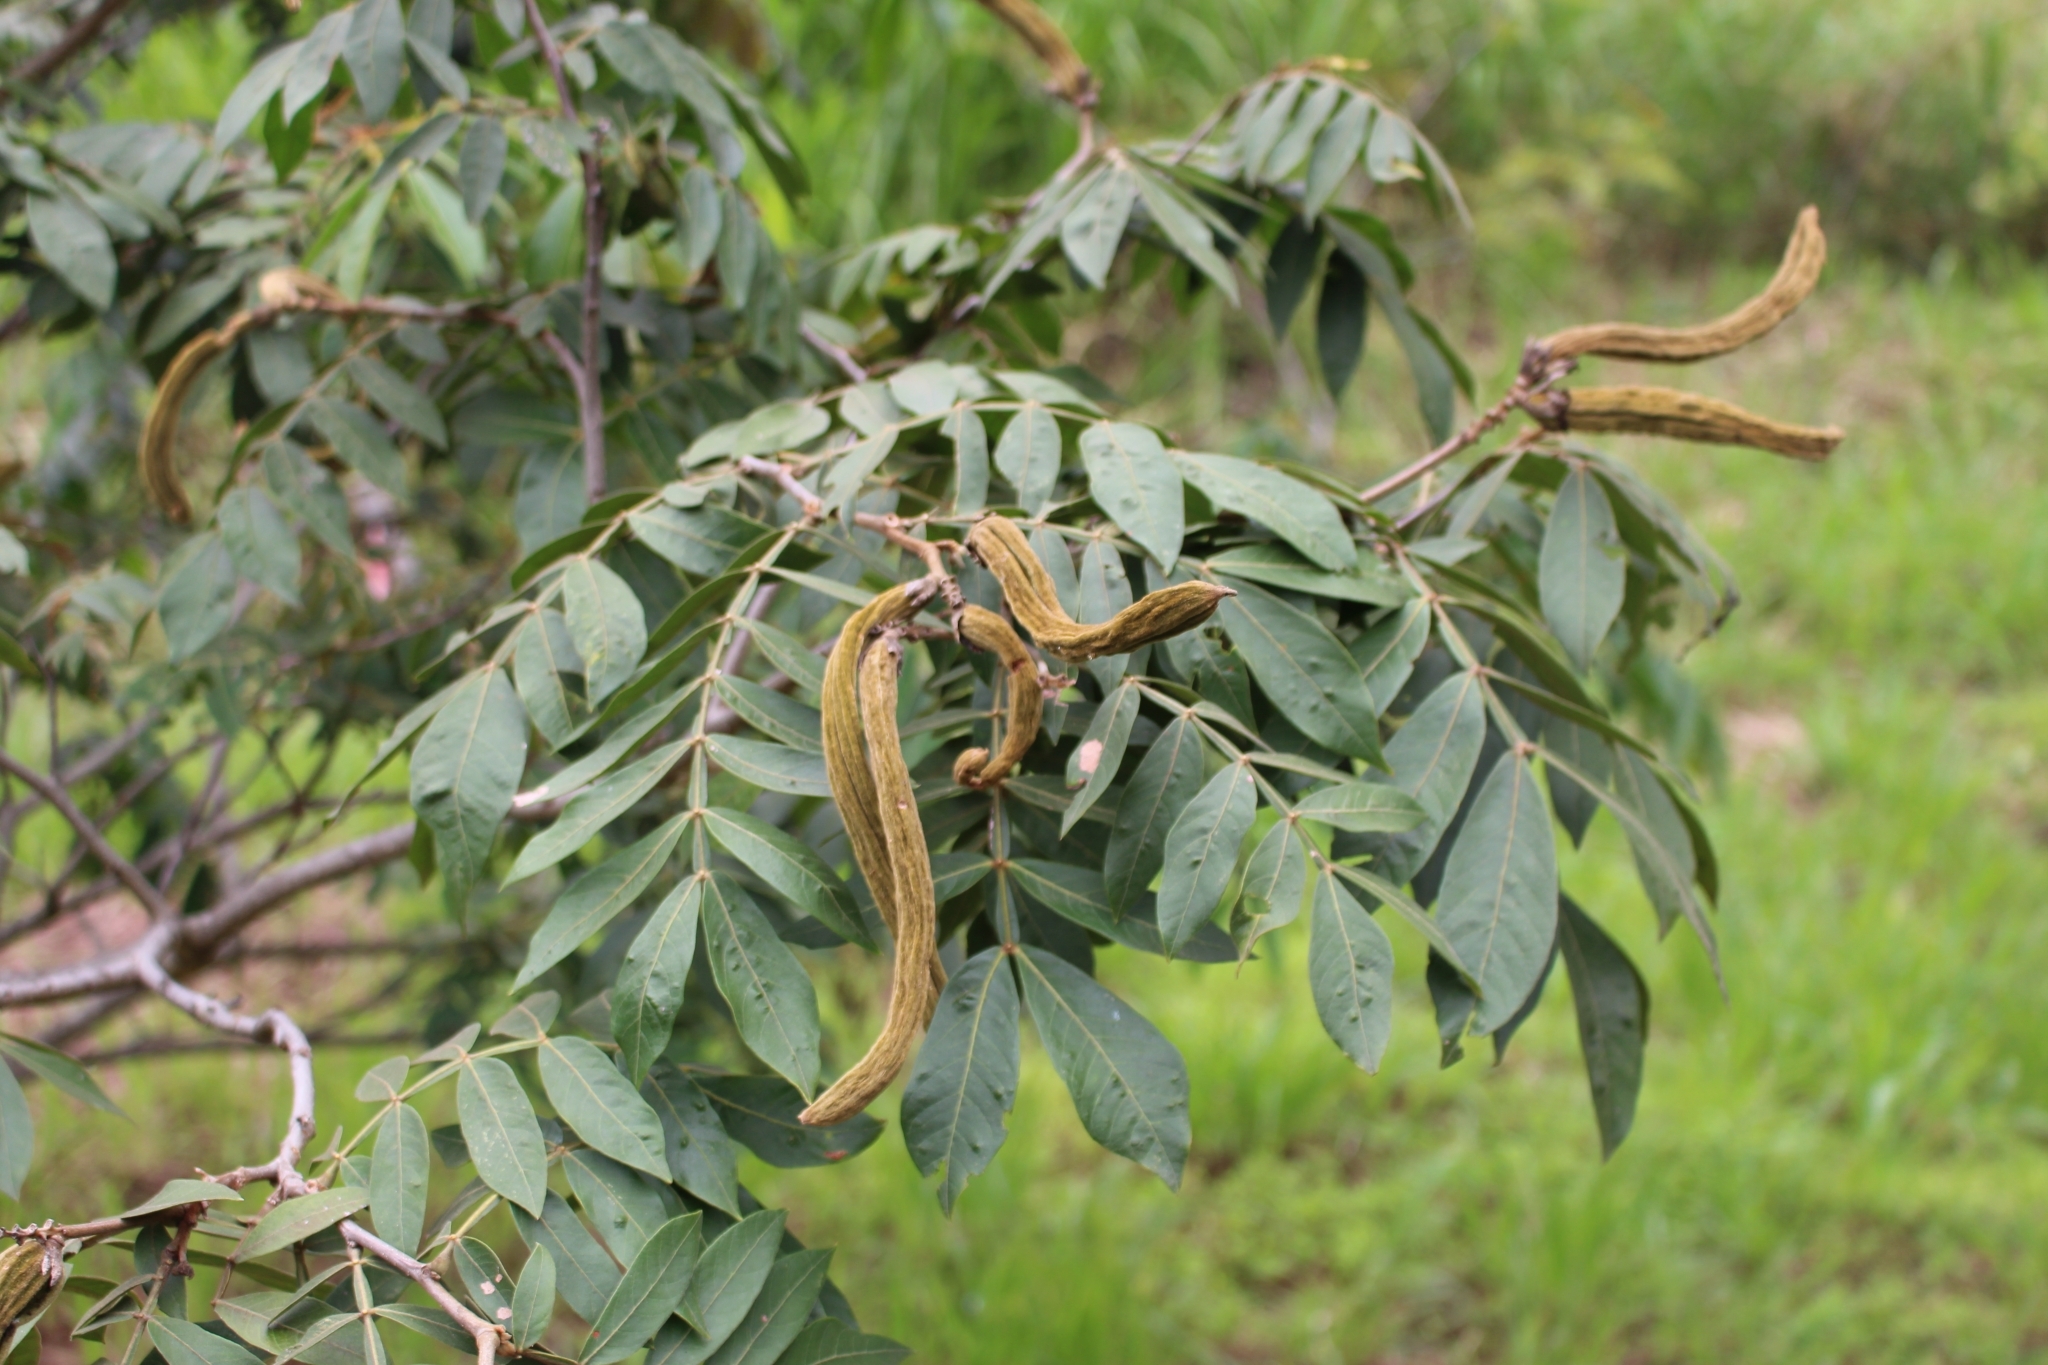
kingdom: Plantae
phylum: Tracheophyta
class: Magnoliopsida
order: Fabales
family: Fabaceae
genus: Inga
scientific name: Inga vera
